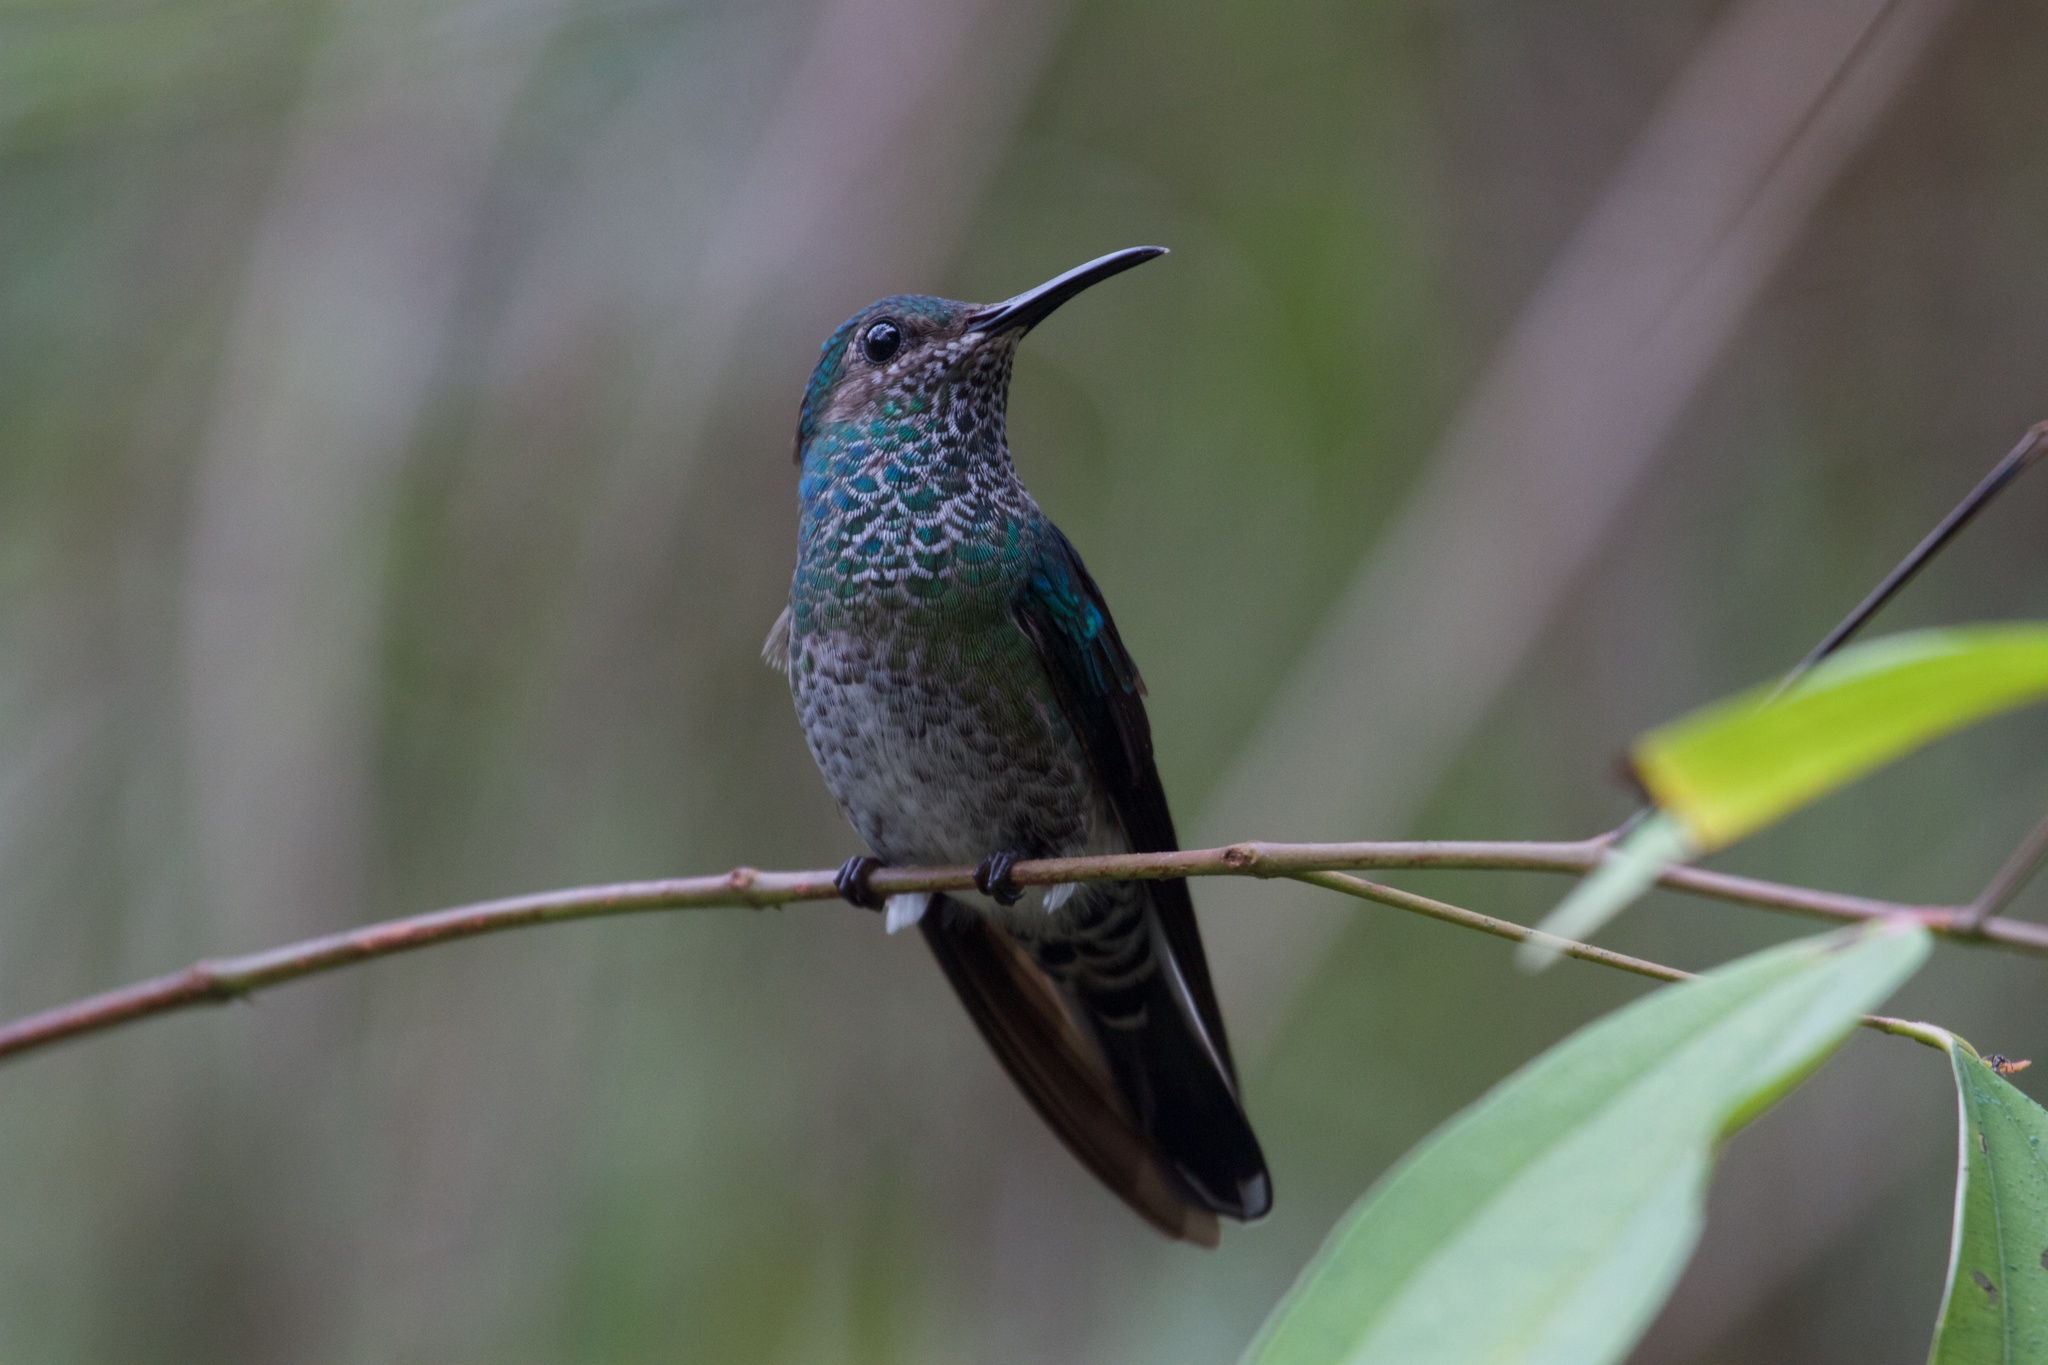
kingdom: Animalia
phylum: Chordata
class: Aves
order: Apodiformes
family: Trochilidae
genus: Florisuga
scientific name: Florisuga mellivora
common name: White-necked jacobin
